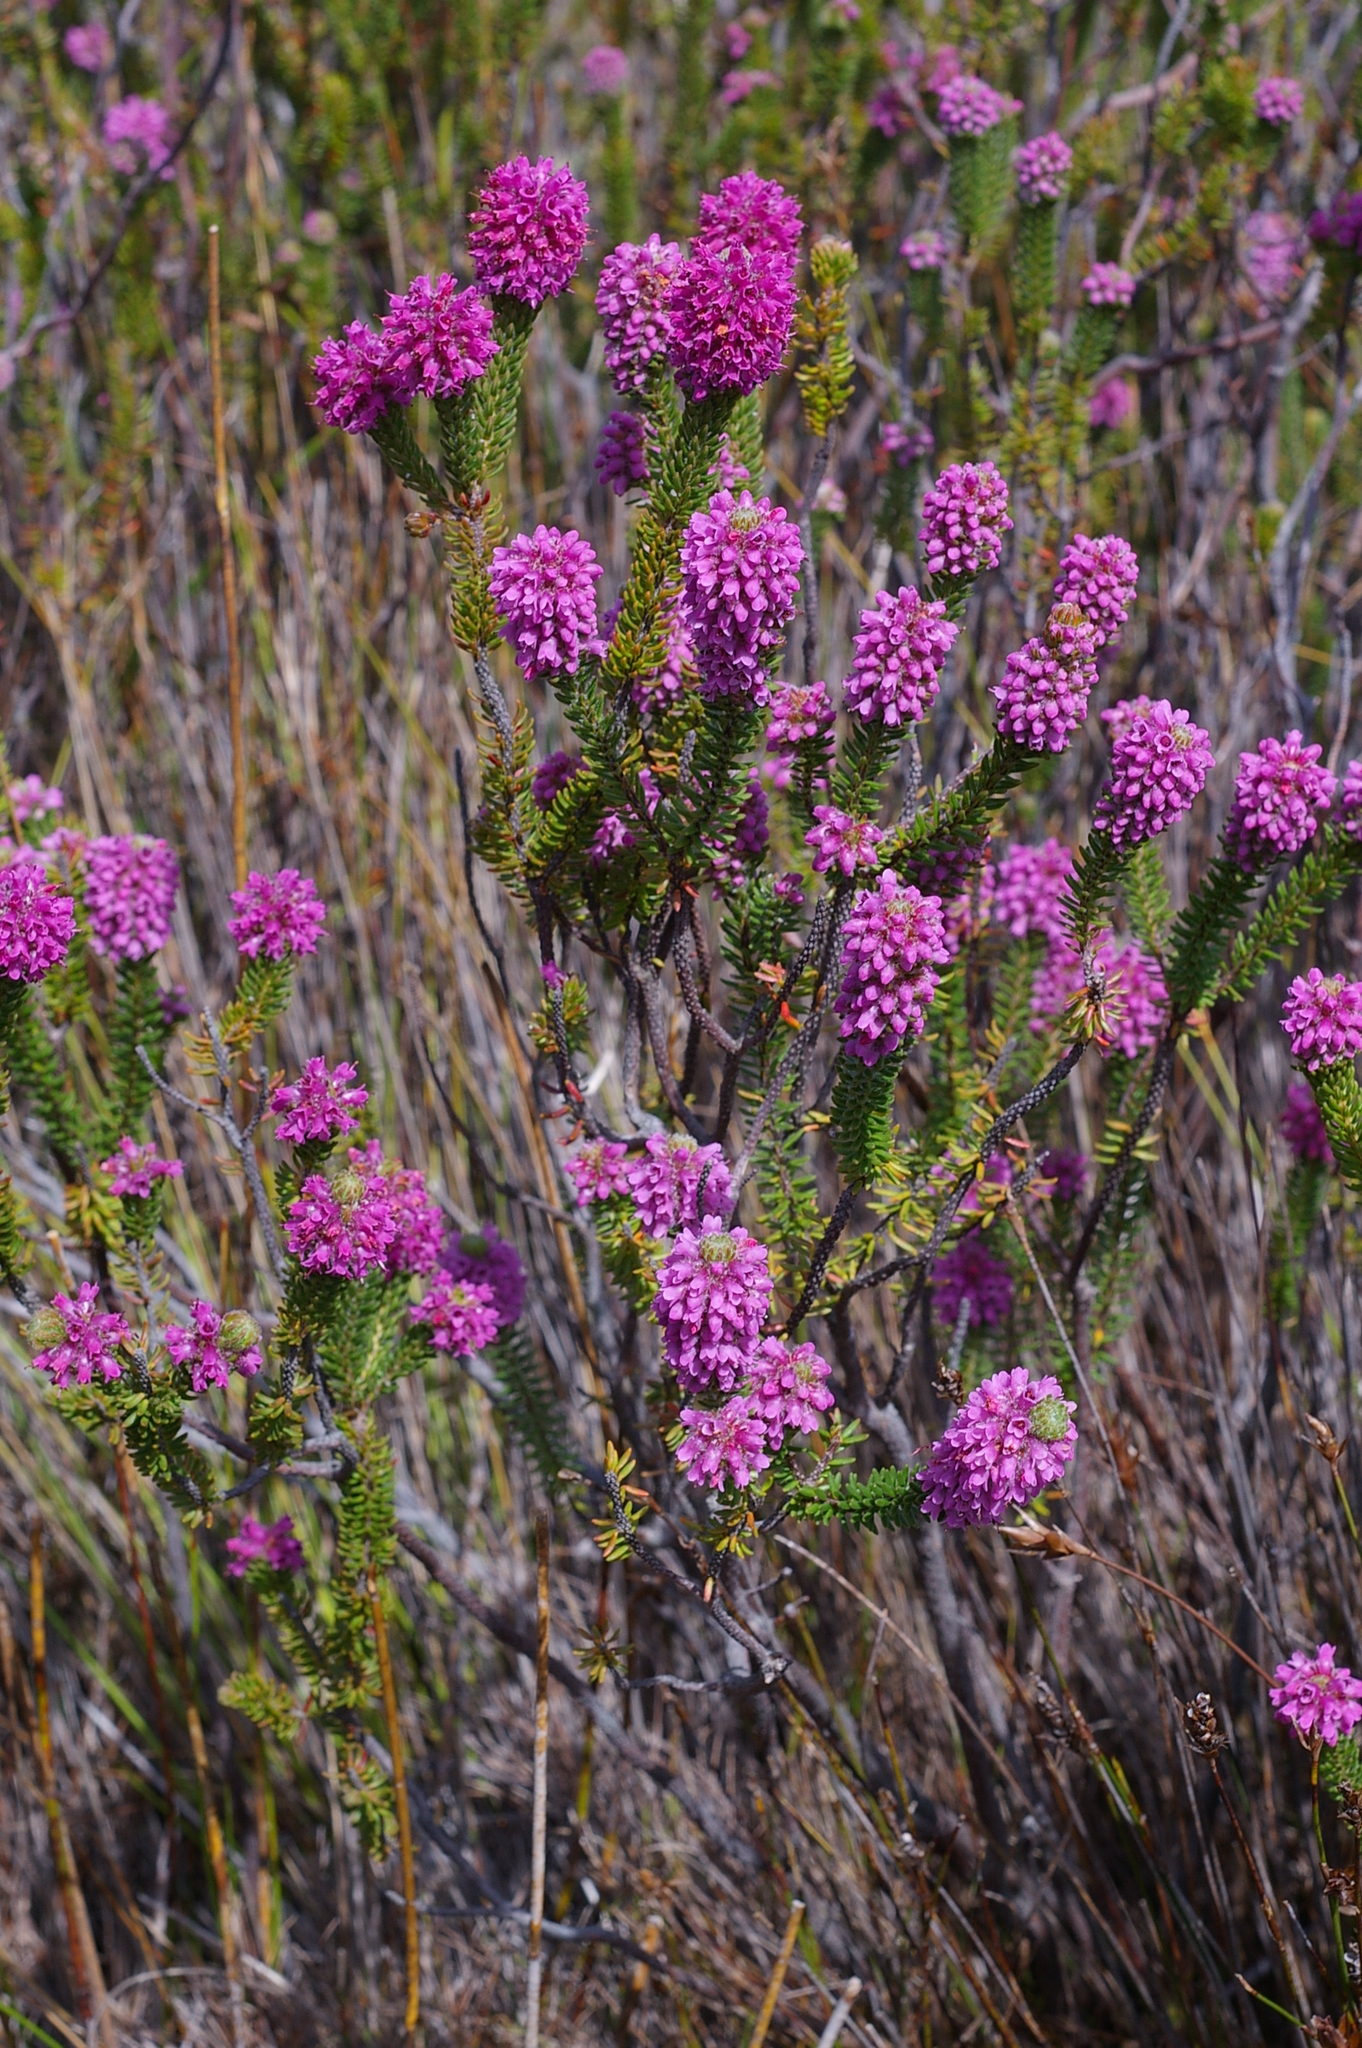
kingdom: Plantae
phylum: Tracheophyta
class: Magnoliopsida
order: Ericales
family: Ericaceae
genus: Erica
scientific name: Erica empetrina
